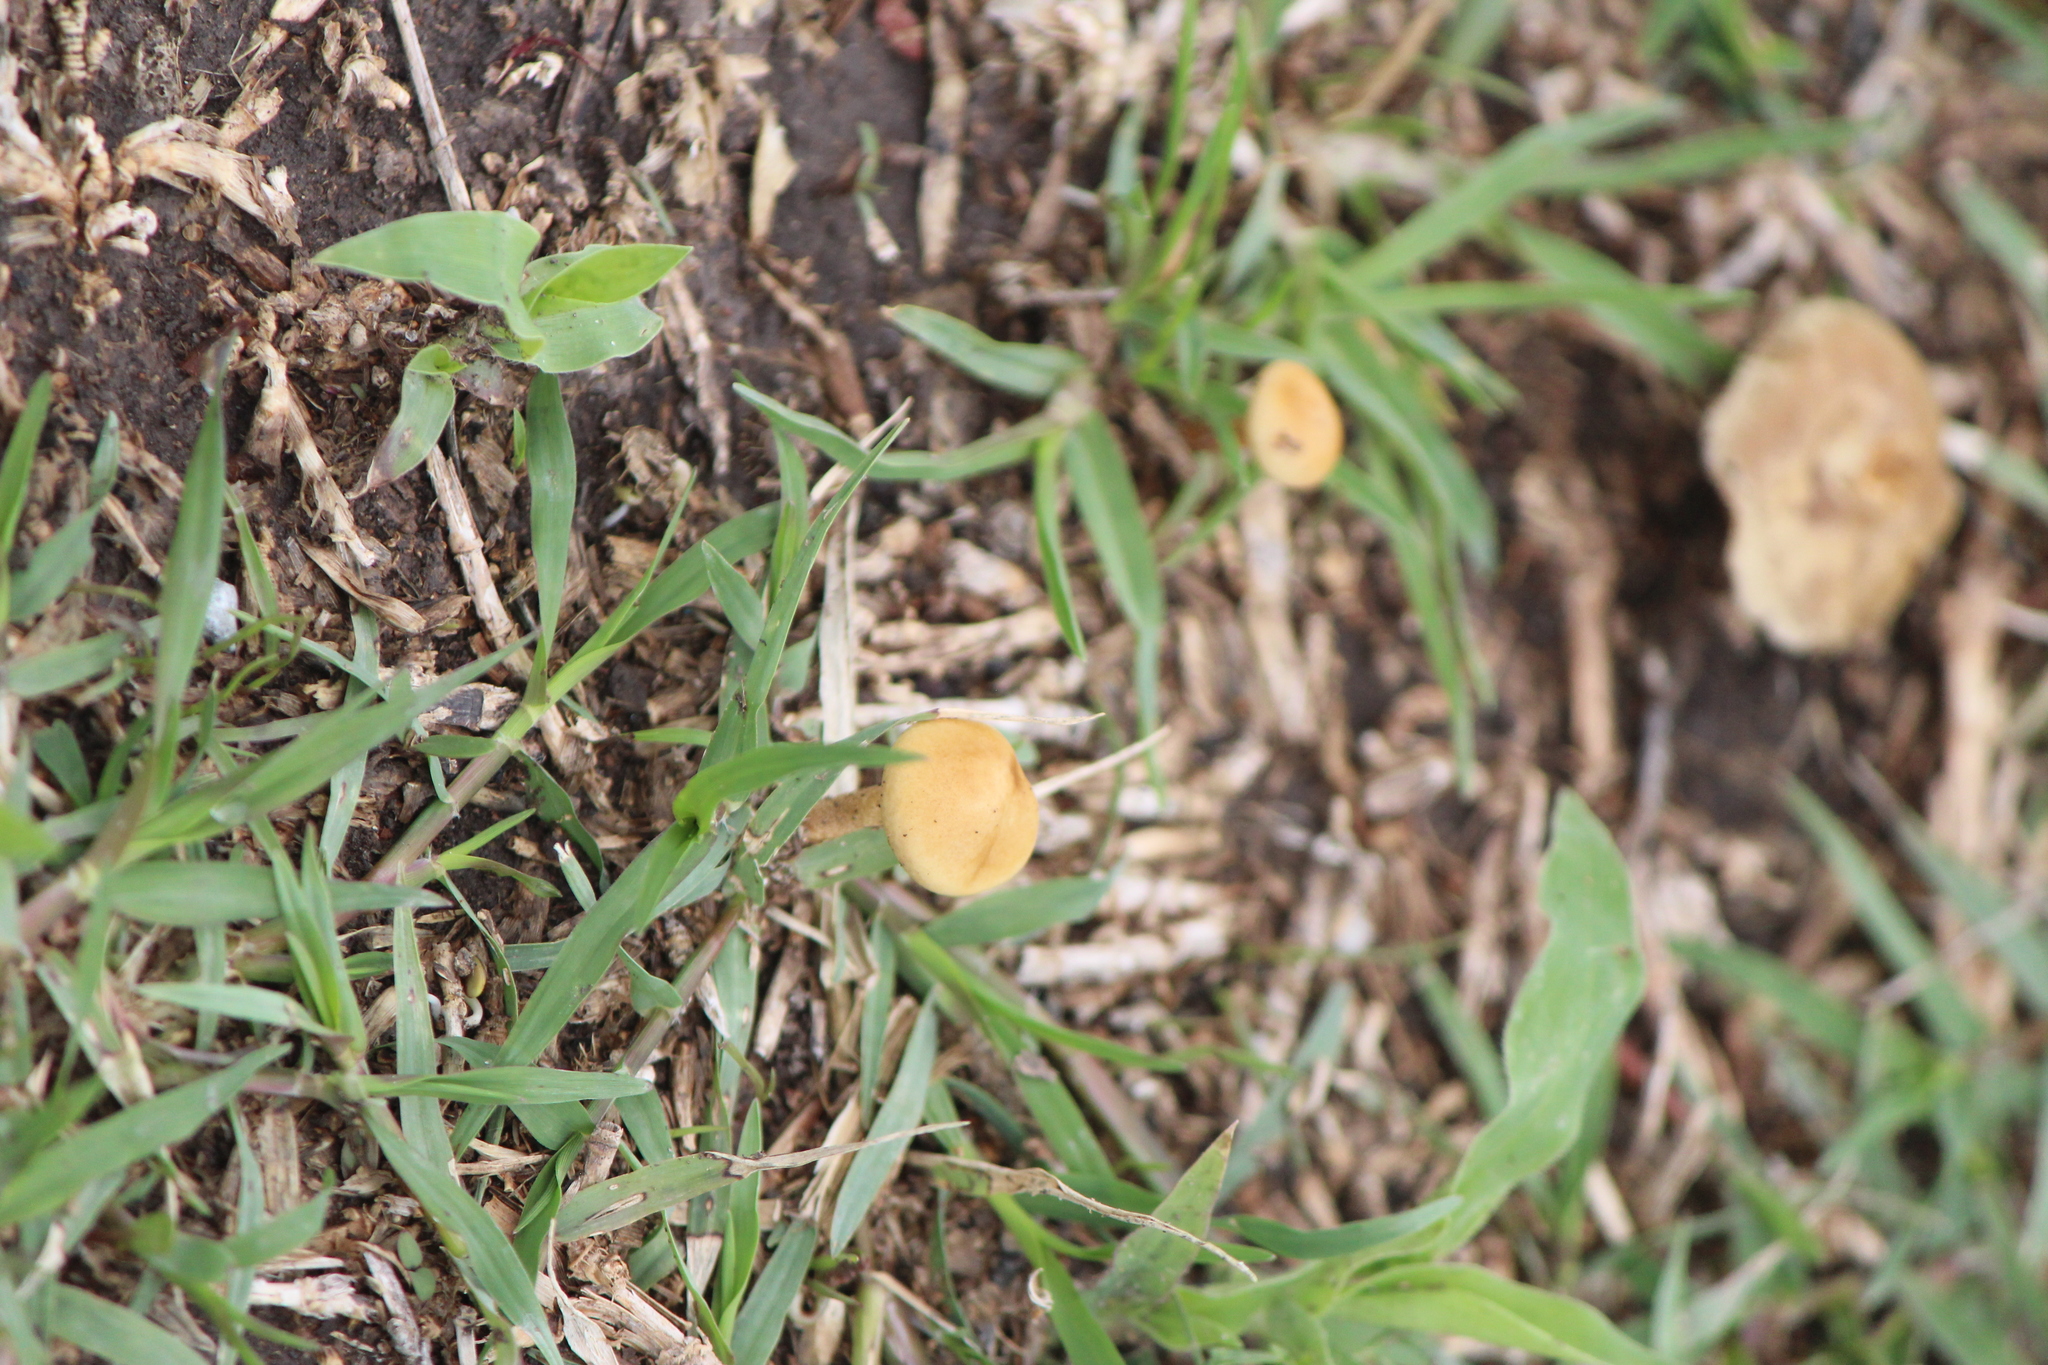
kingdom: Fungi
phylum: Basidiomycota
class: Agaricomycetes
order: Agaricales
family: Strophariaceae
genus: Agrocybe
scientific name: Agrocybe pediades
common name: Common fieldcap
